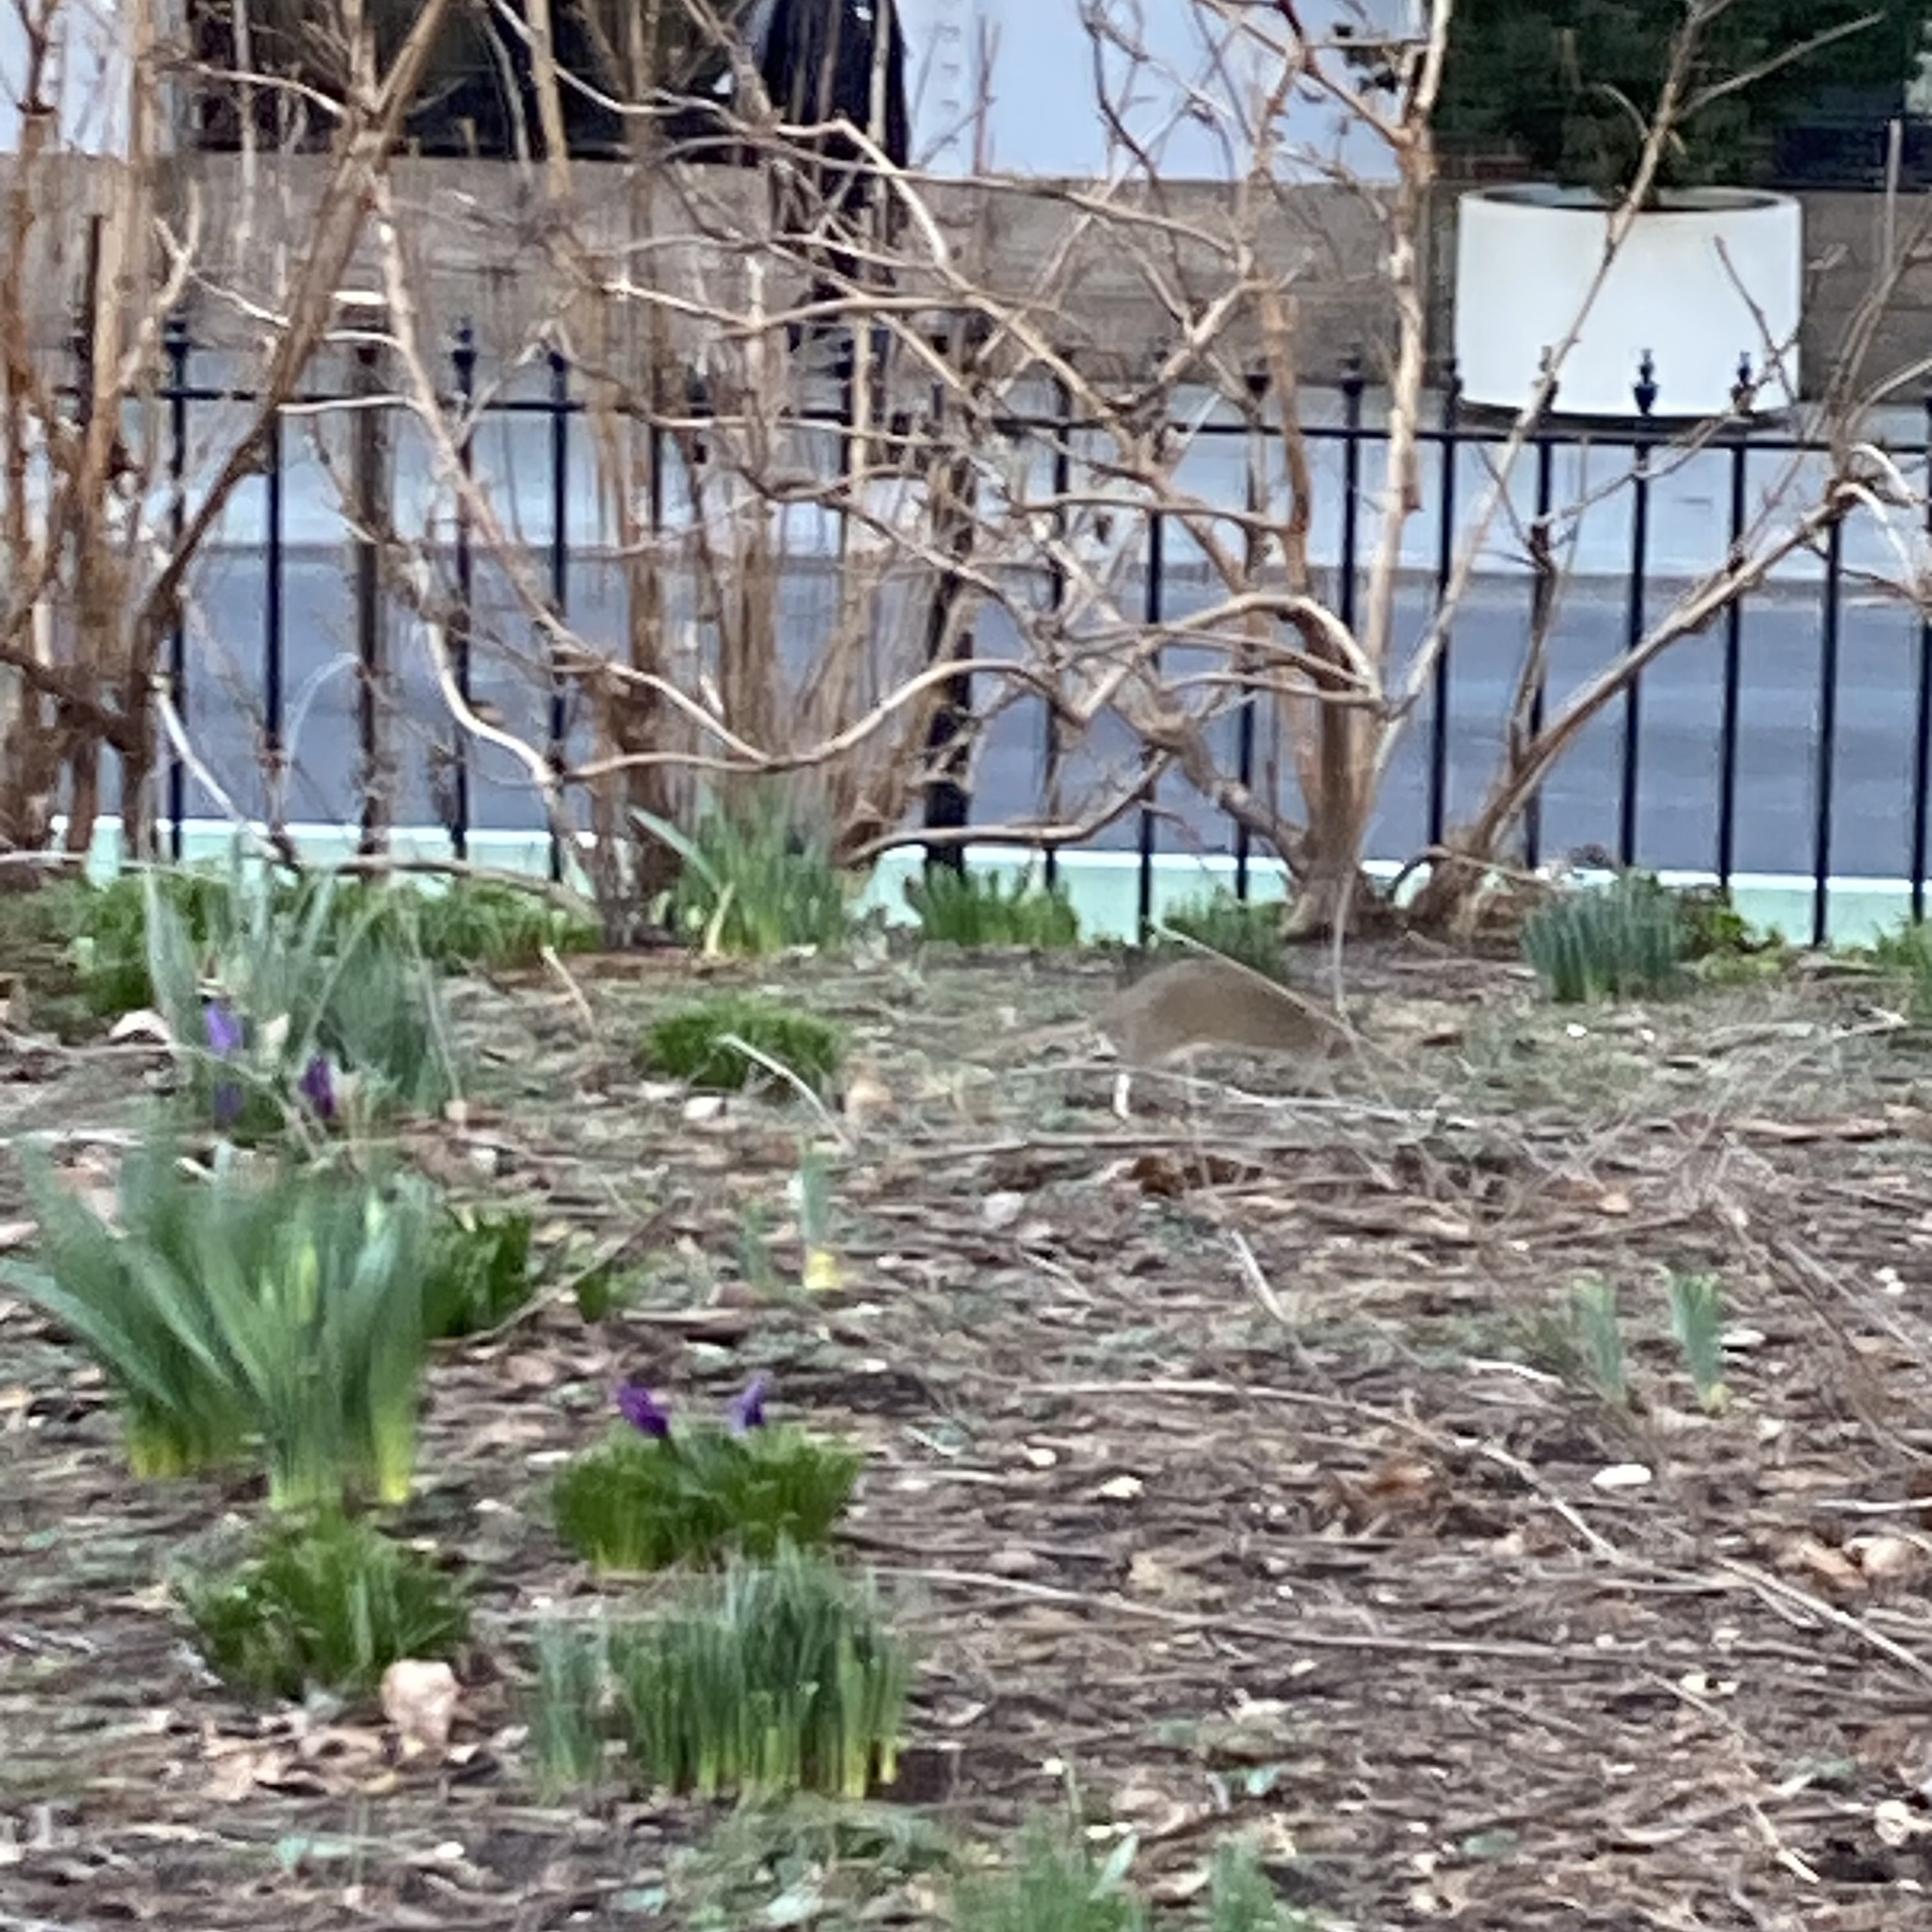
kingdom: Animalia
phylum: Chordata
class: Mammalia
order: Rodentia
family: Muridae
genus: Rattus
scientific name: Rattus norvegicus
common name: Brown rat
